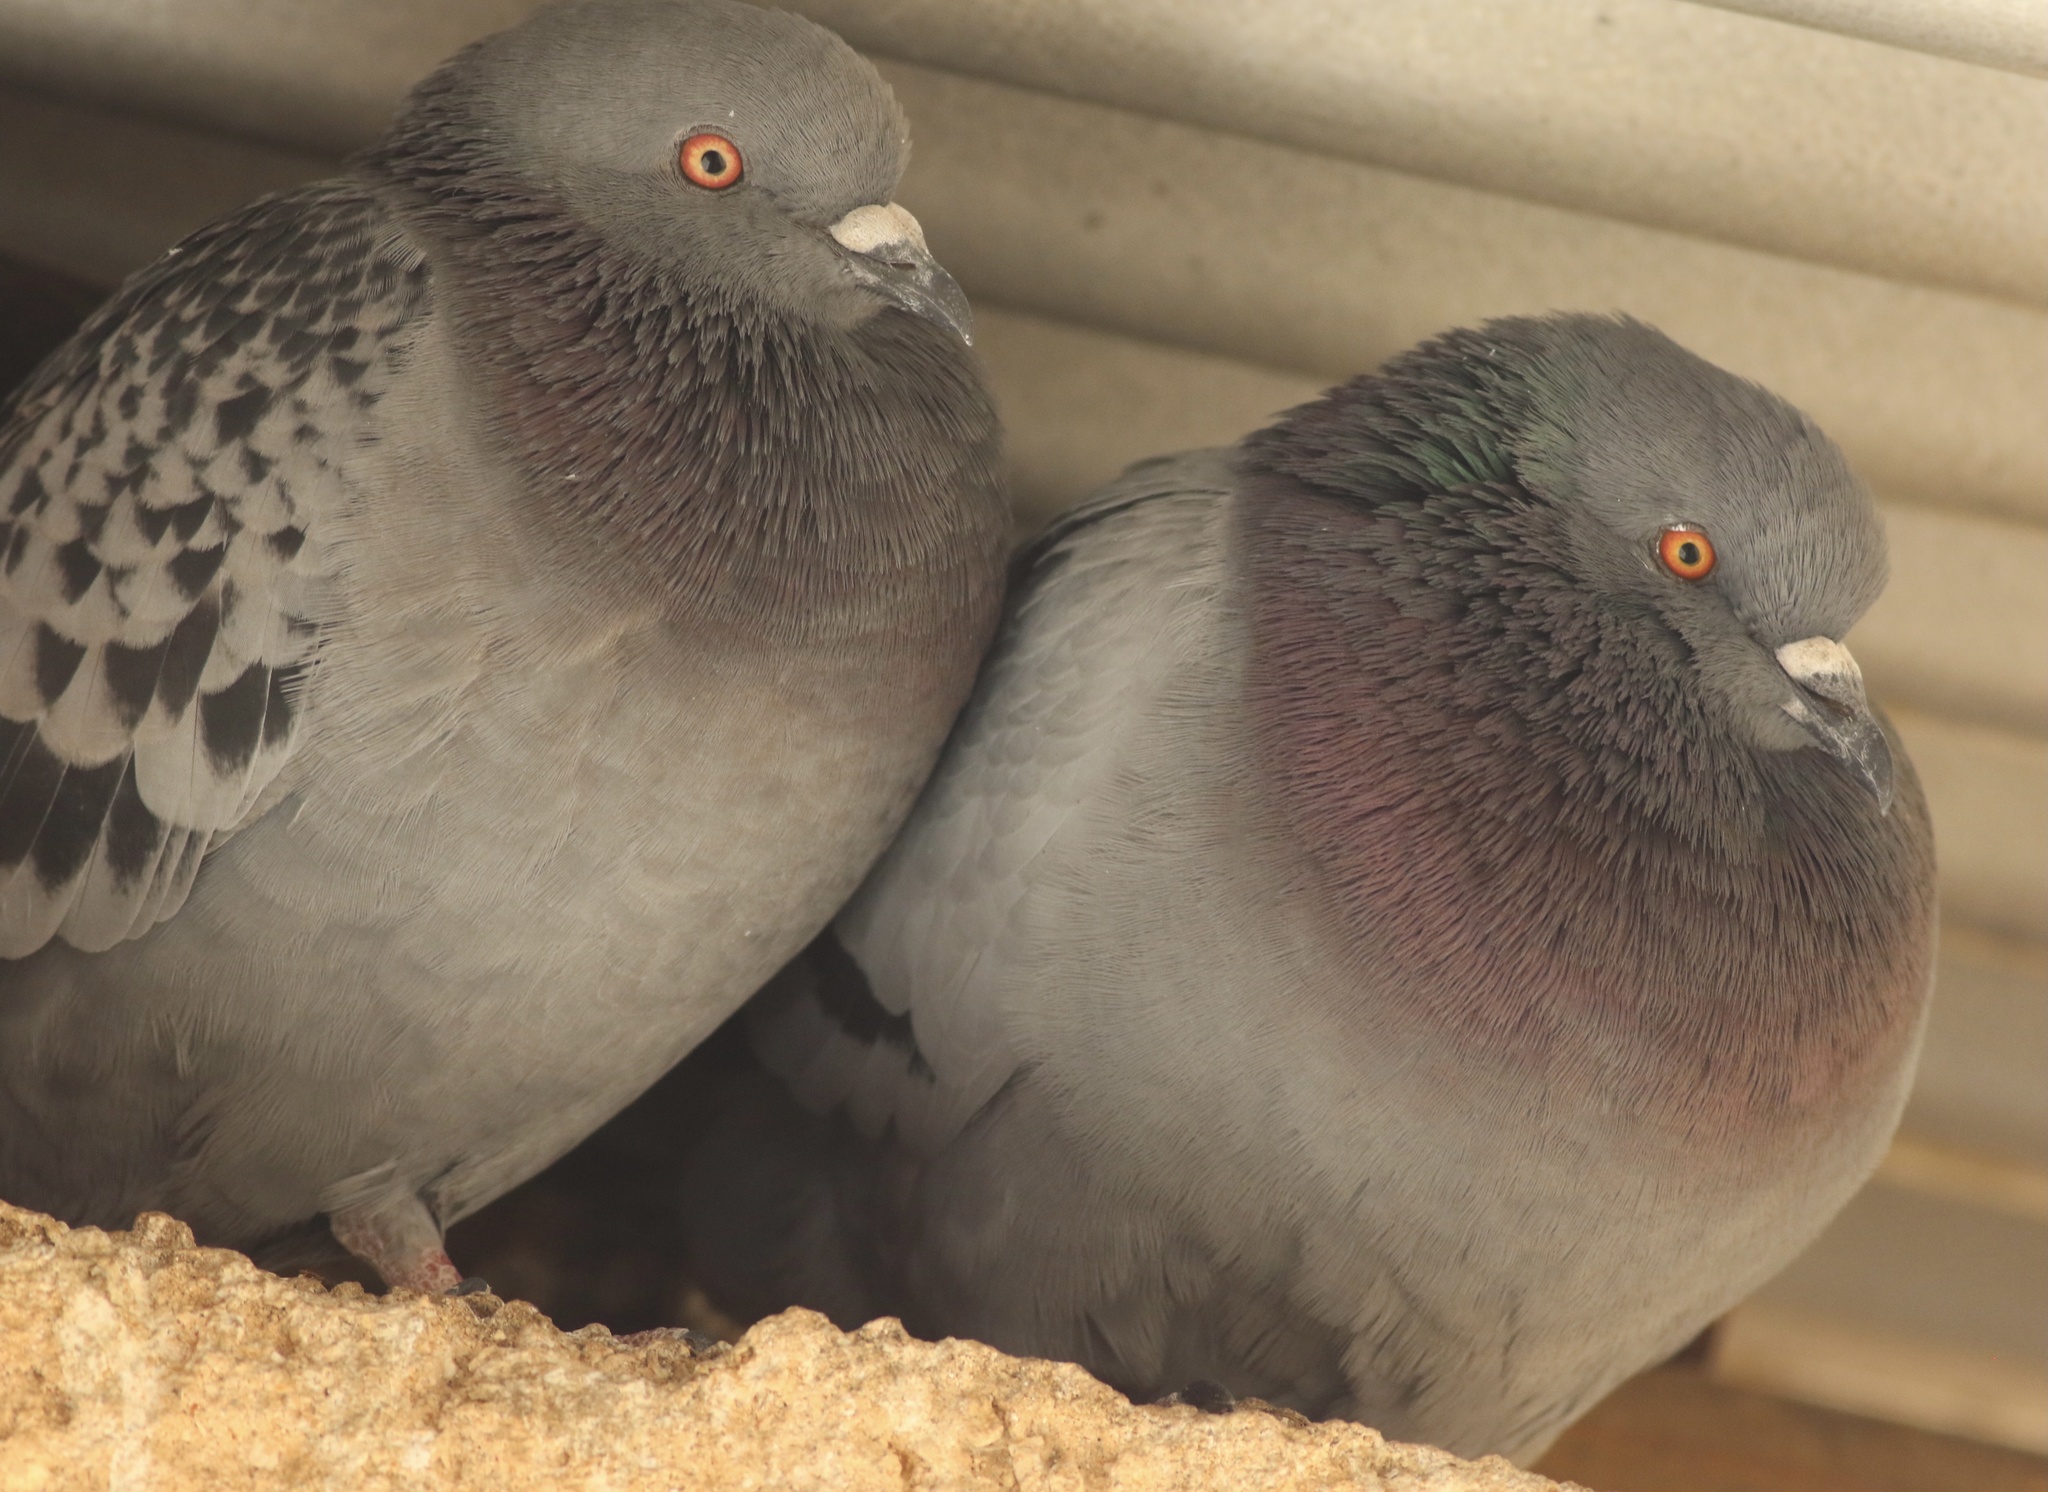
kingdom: Animalia
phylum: Chordata
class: Aves
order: Columbiformes
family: Columbidae
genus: Columba
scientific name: Columba livia
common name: Rock pigeon
